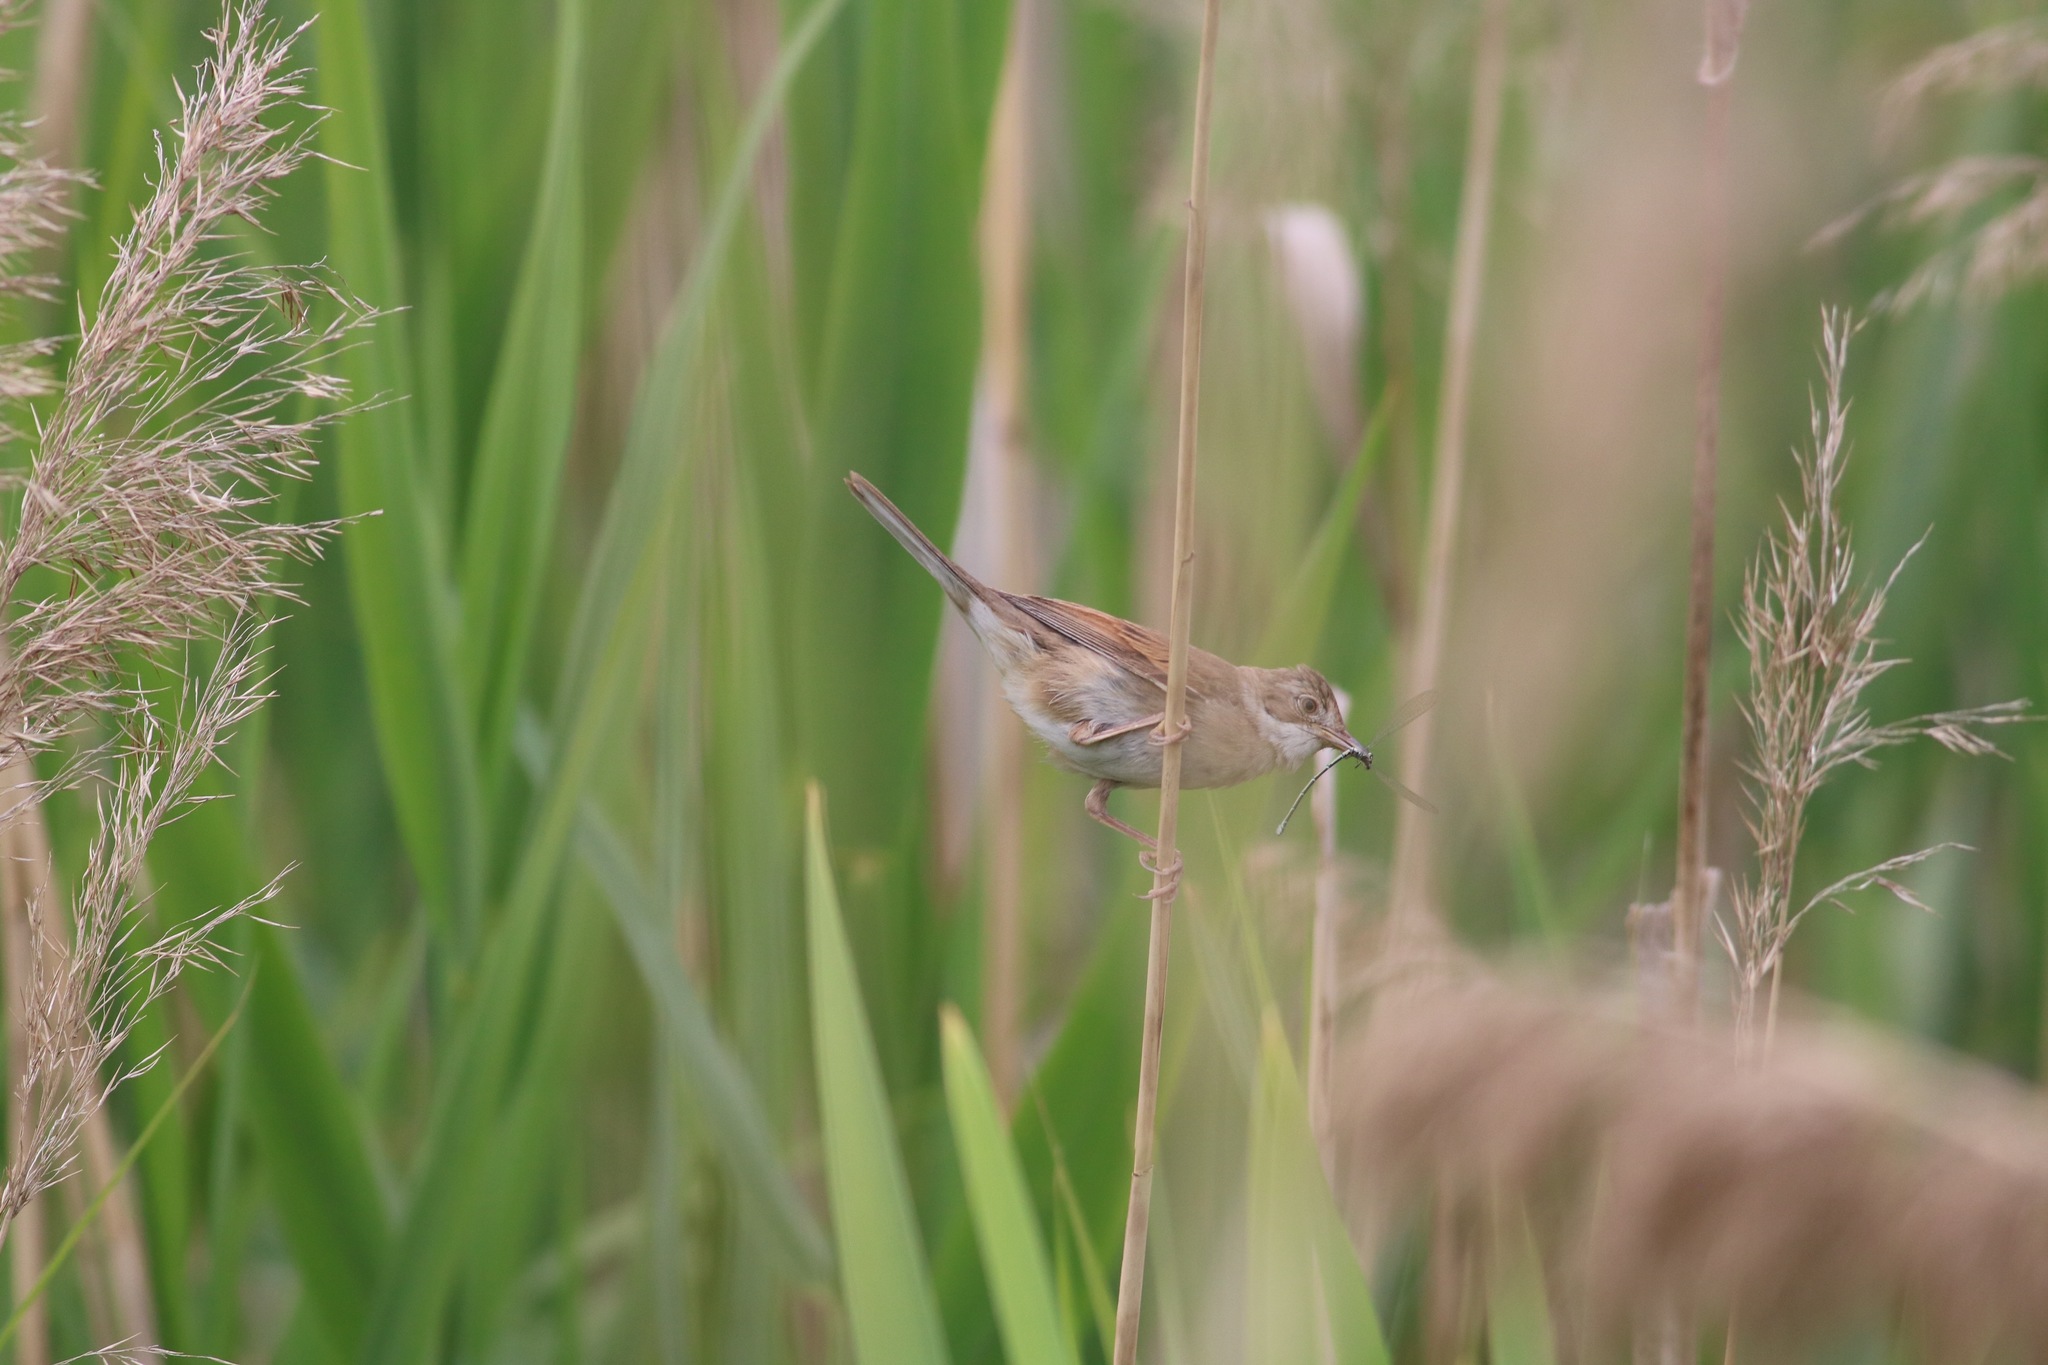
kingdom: Animalia
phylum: Chordata
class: Aves
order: Passeriformes
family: Sylviidae
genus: Sylvia
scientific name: Sylvia communis
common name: Common whitethroat
